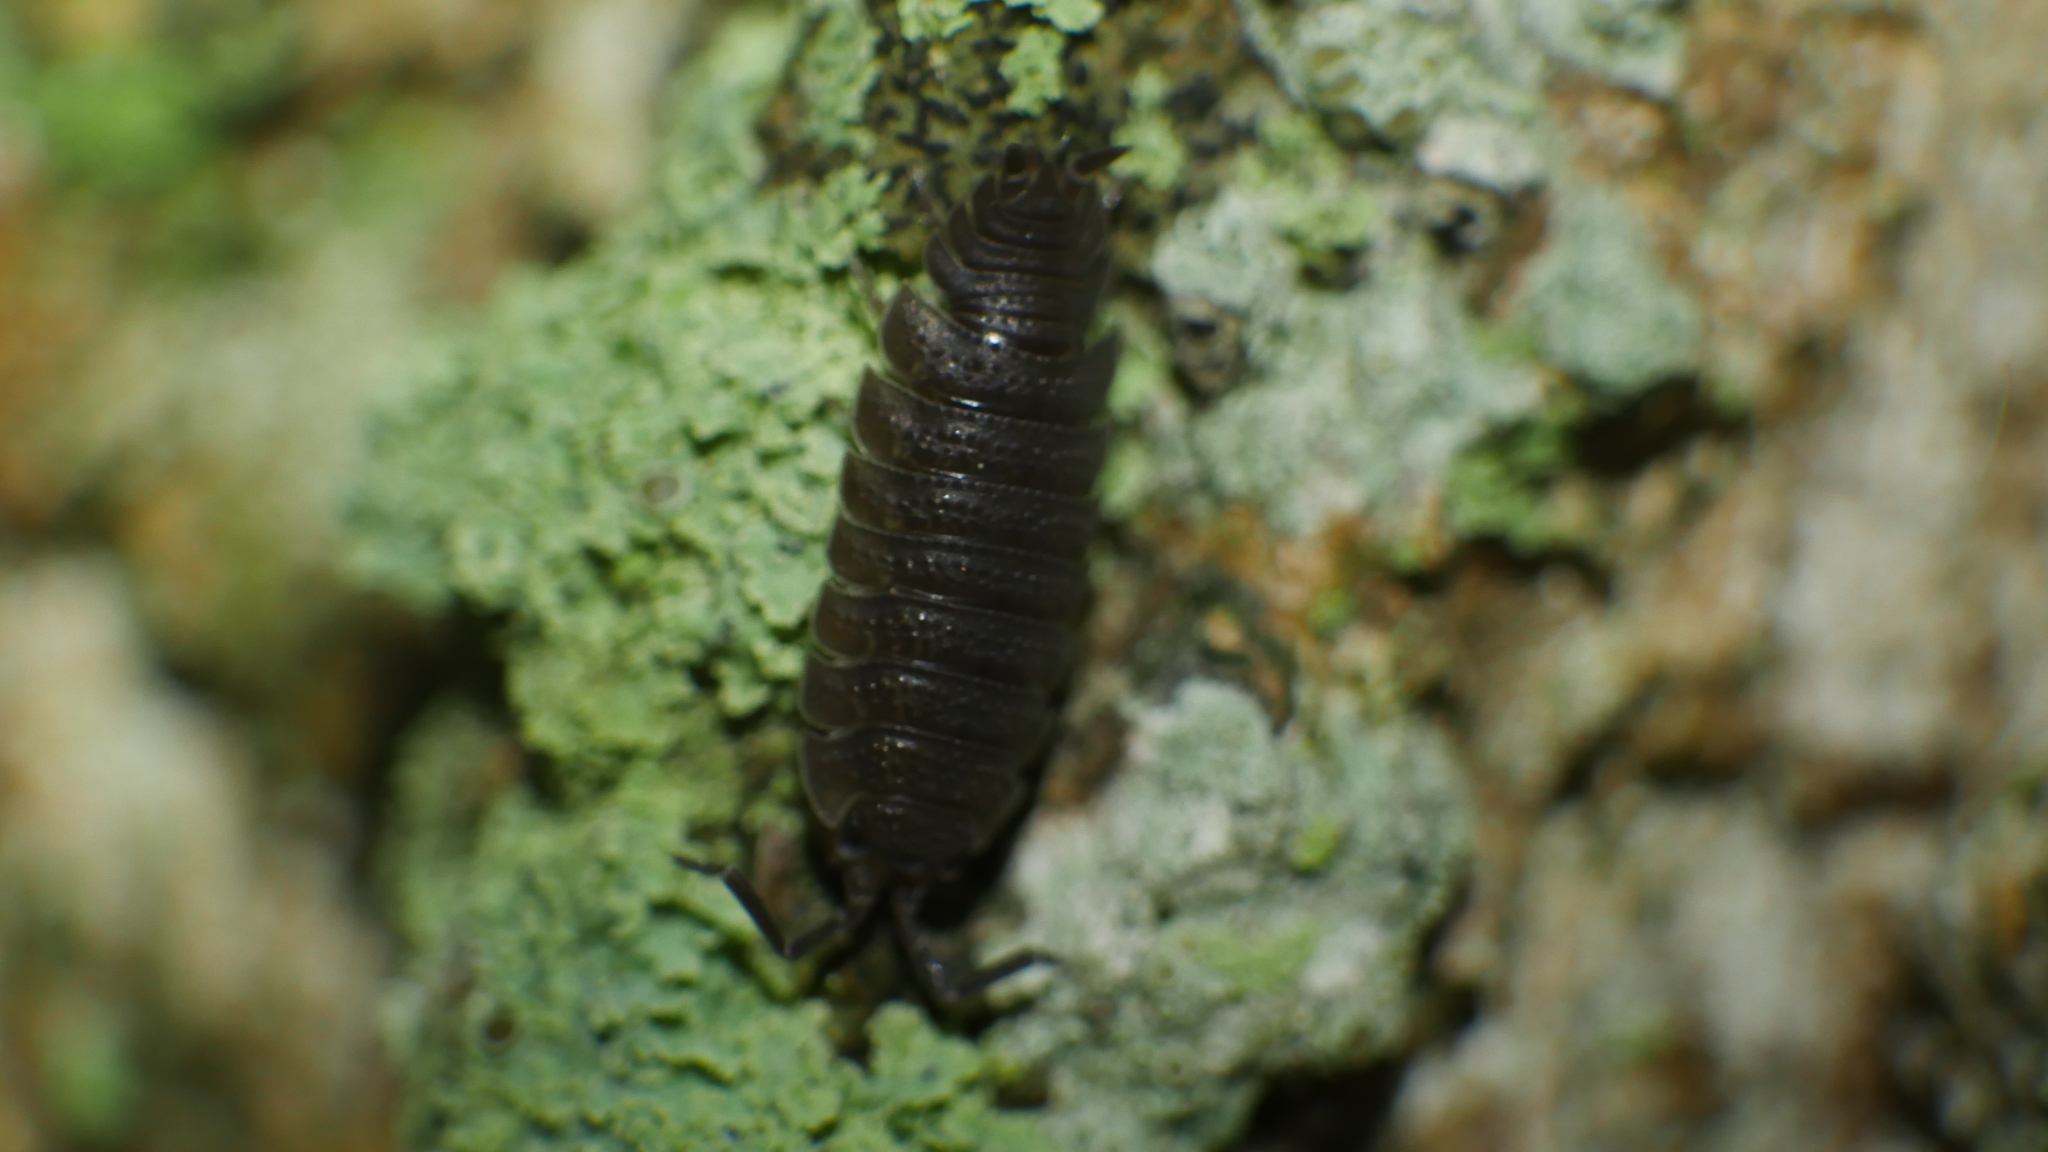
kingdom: Animalia
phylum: Arthropoda
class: Malacostraca
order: Isopoda
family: Porcellionidae
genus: Porcellio
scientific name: Porcellio scaber
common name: Common rough woodlouse
